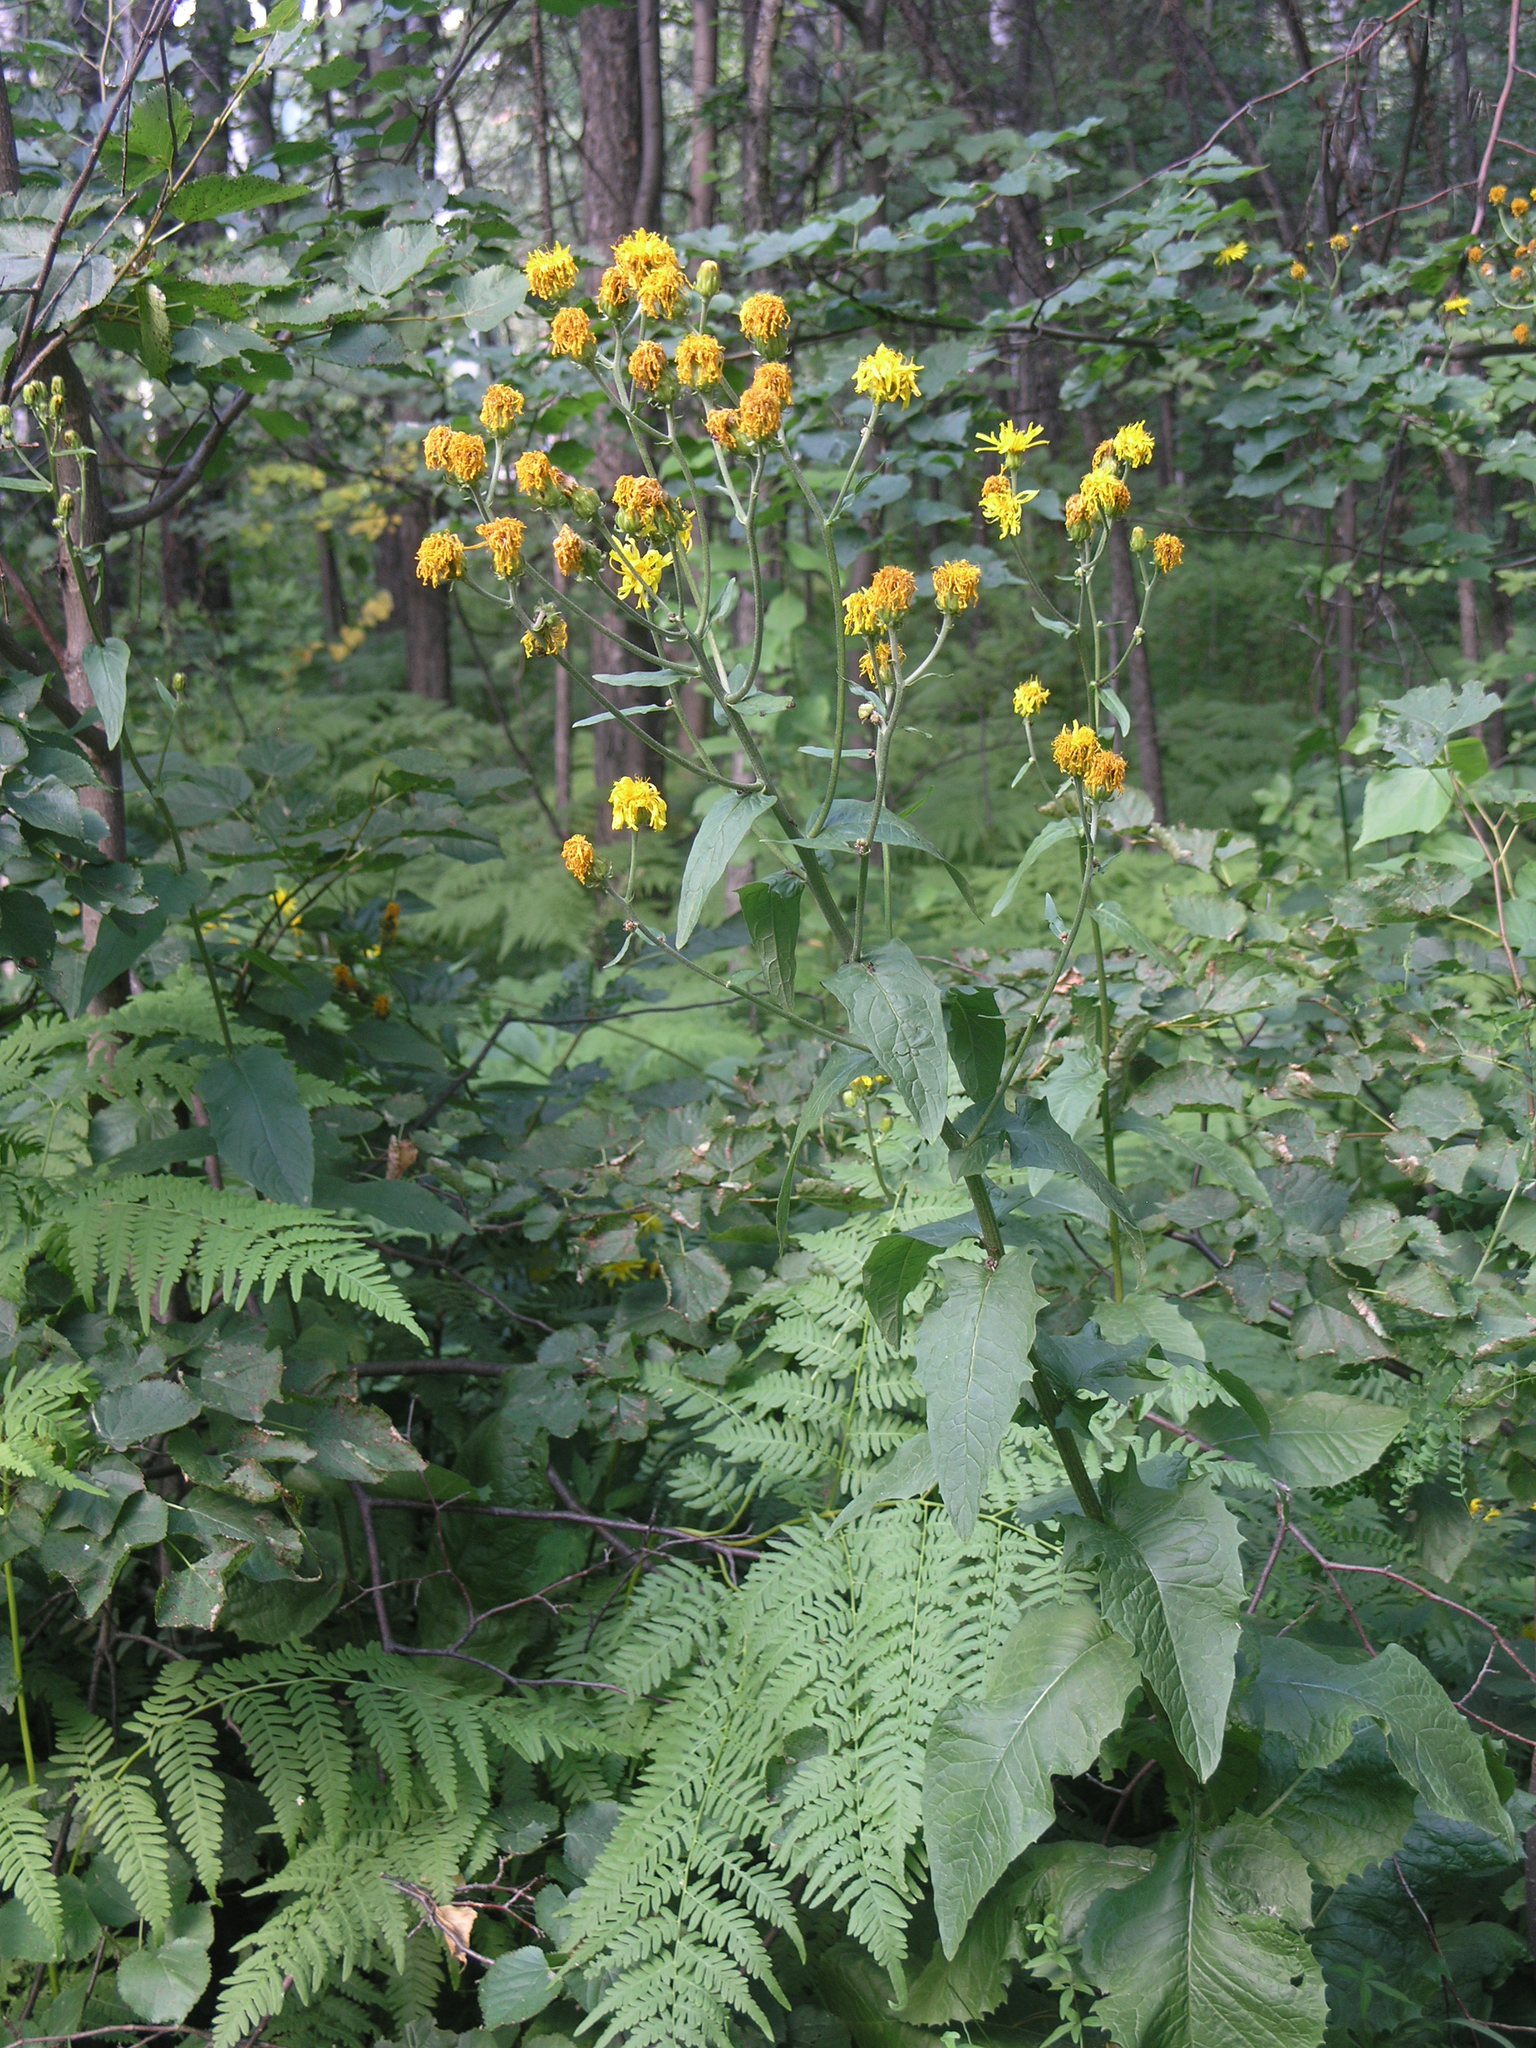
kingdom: Plantae
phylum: Tracheophyta
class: Magnoliopsida
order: Asterales
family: Asteraceae
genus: Crepis
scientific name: Crepis sibirica
